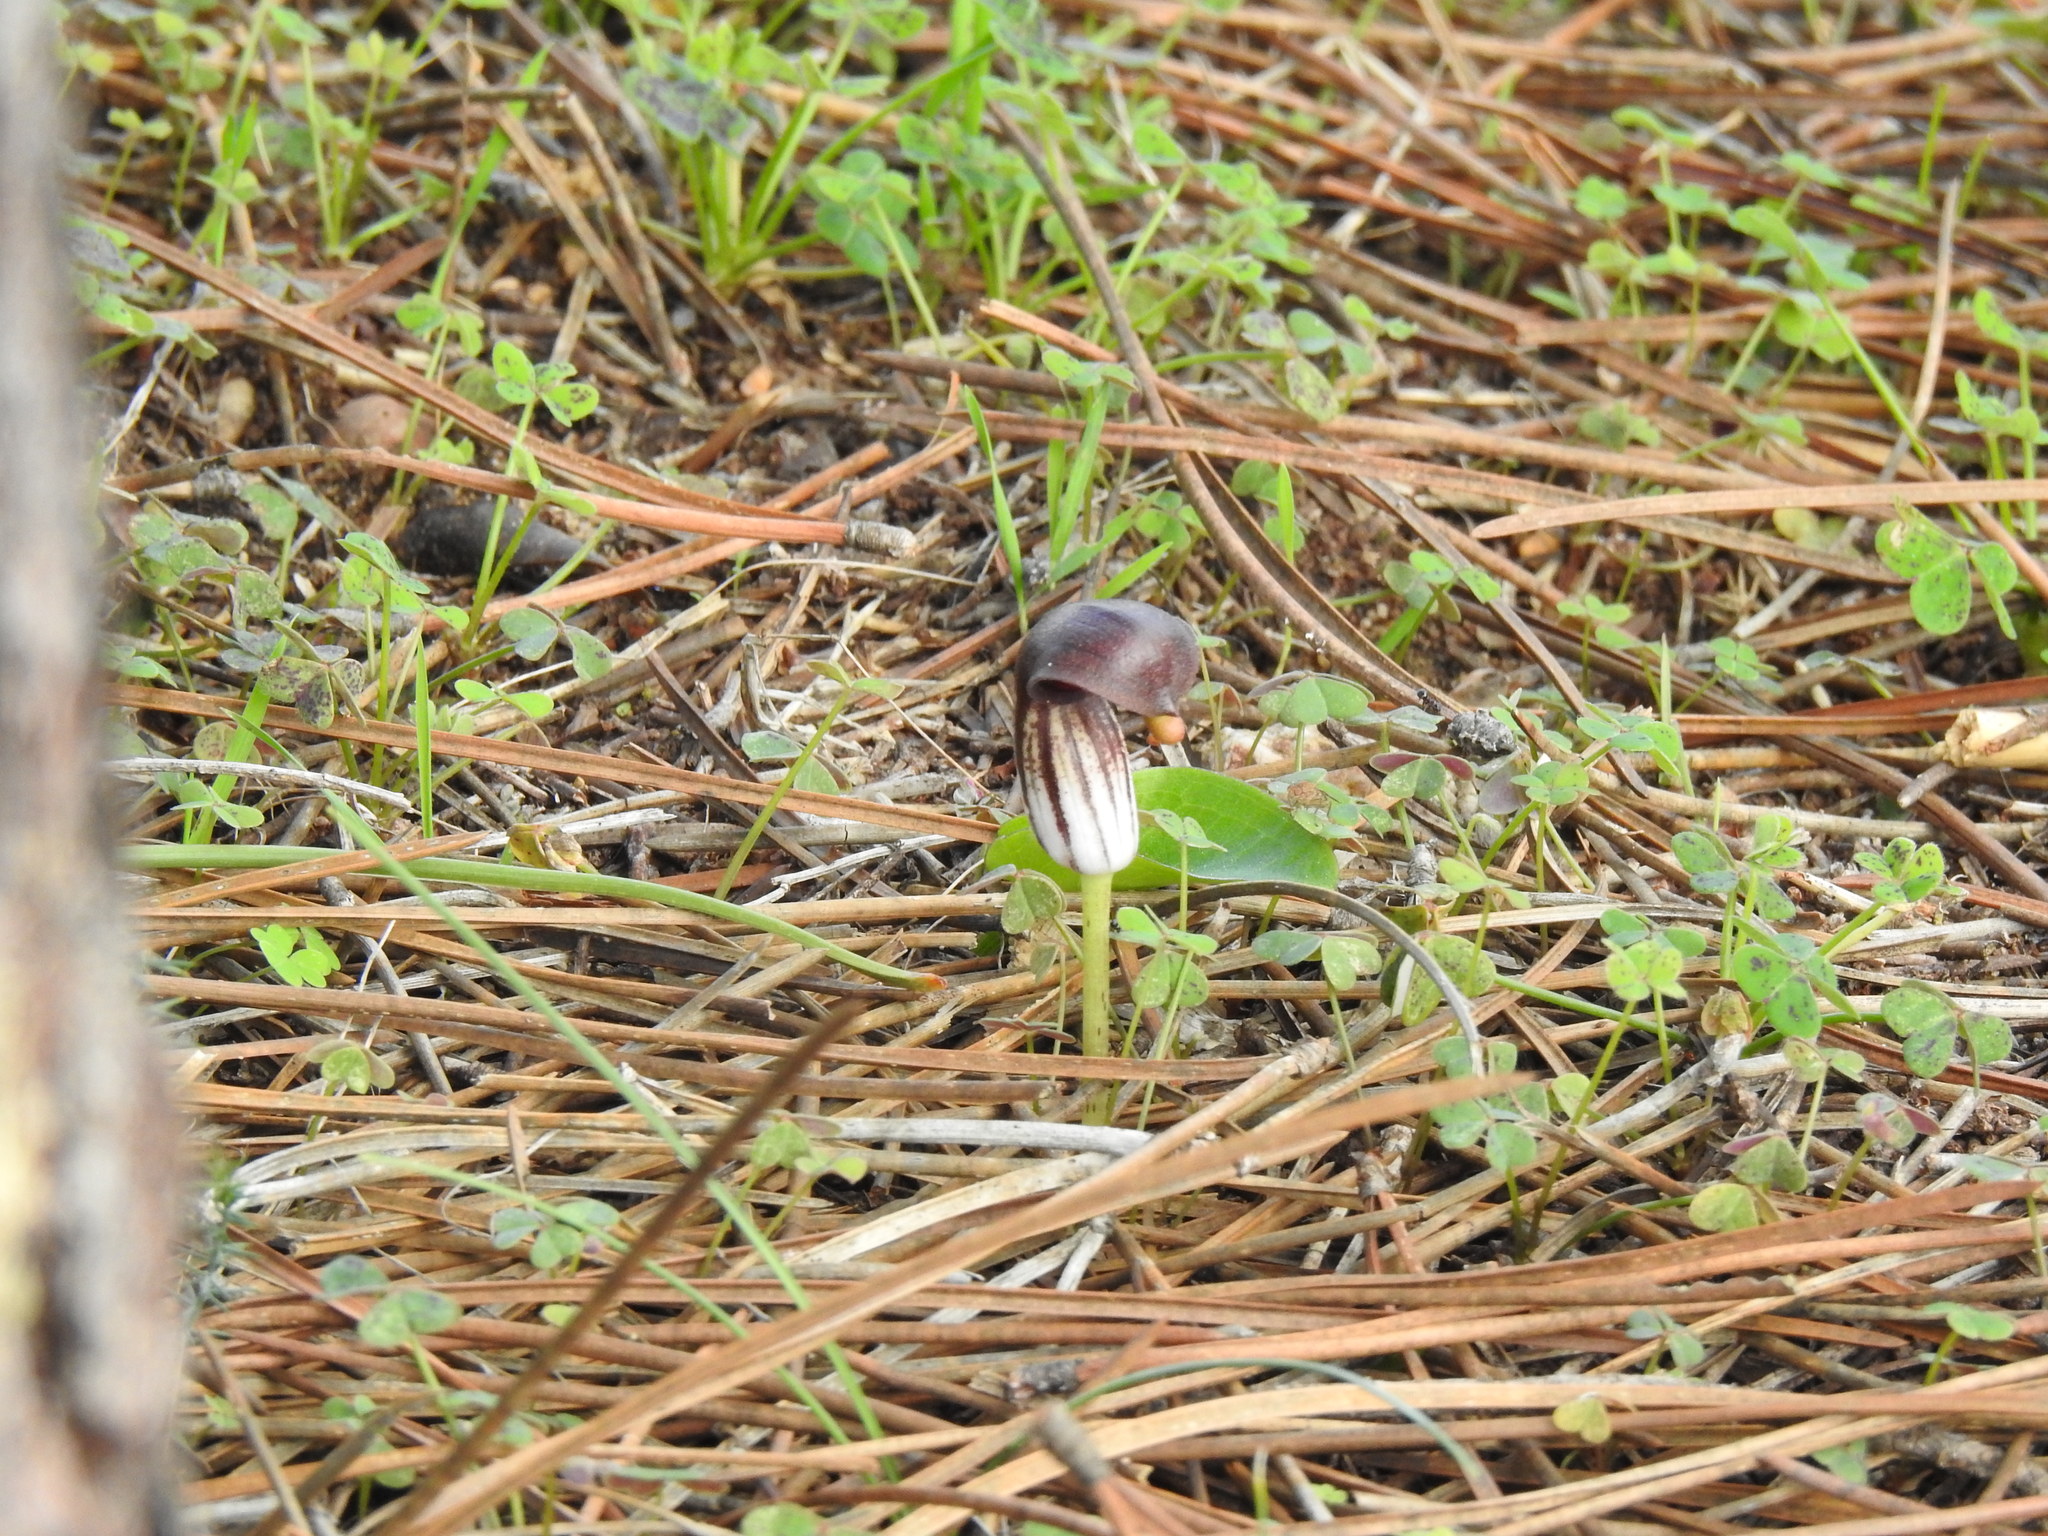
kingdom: Plantae
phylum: Tracheophyta
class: Liliopsida
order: Alismatales
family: Araceae
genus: Arisarum
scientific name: Arisarum simorrhinum
